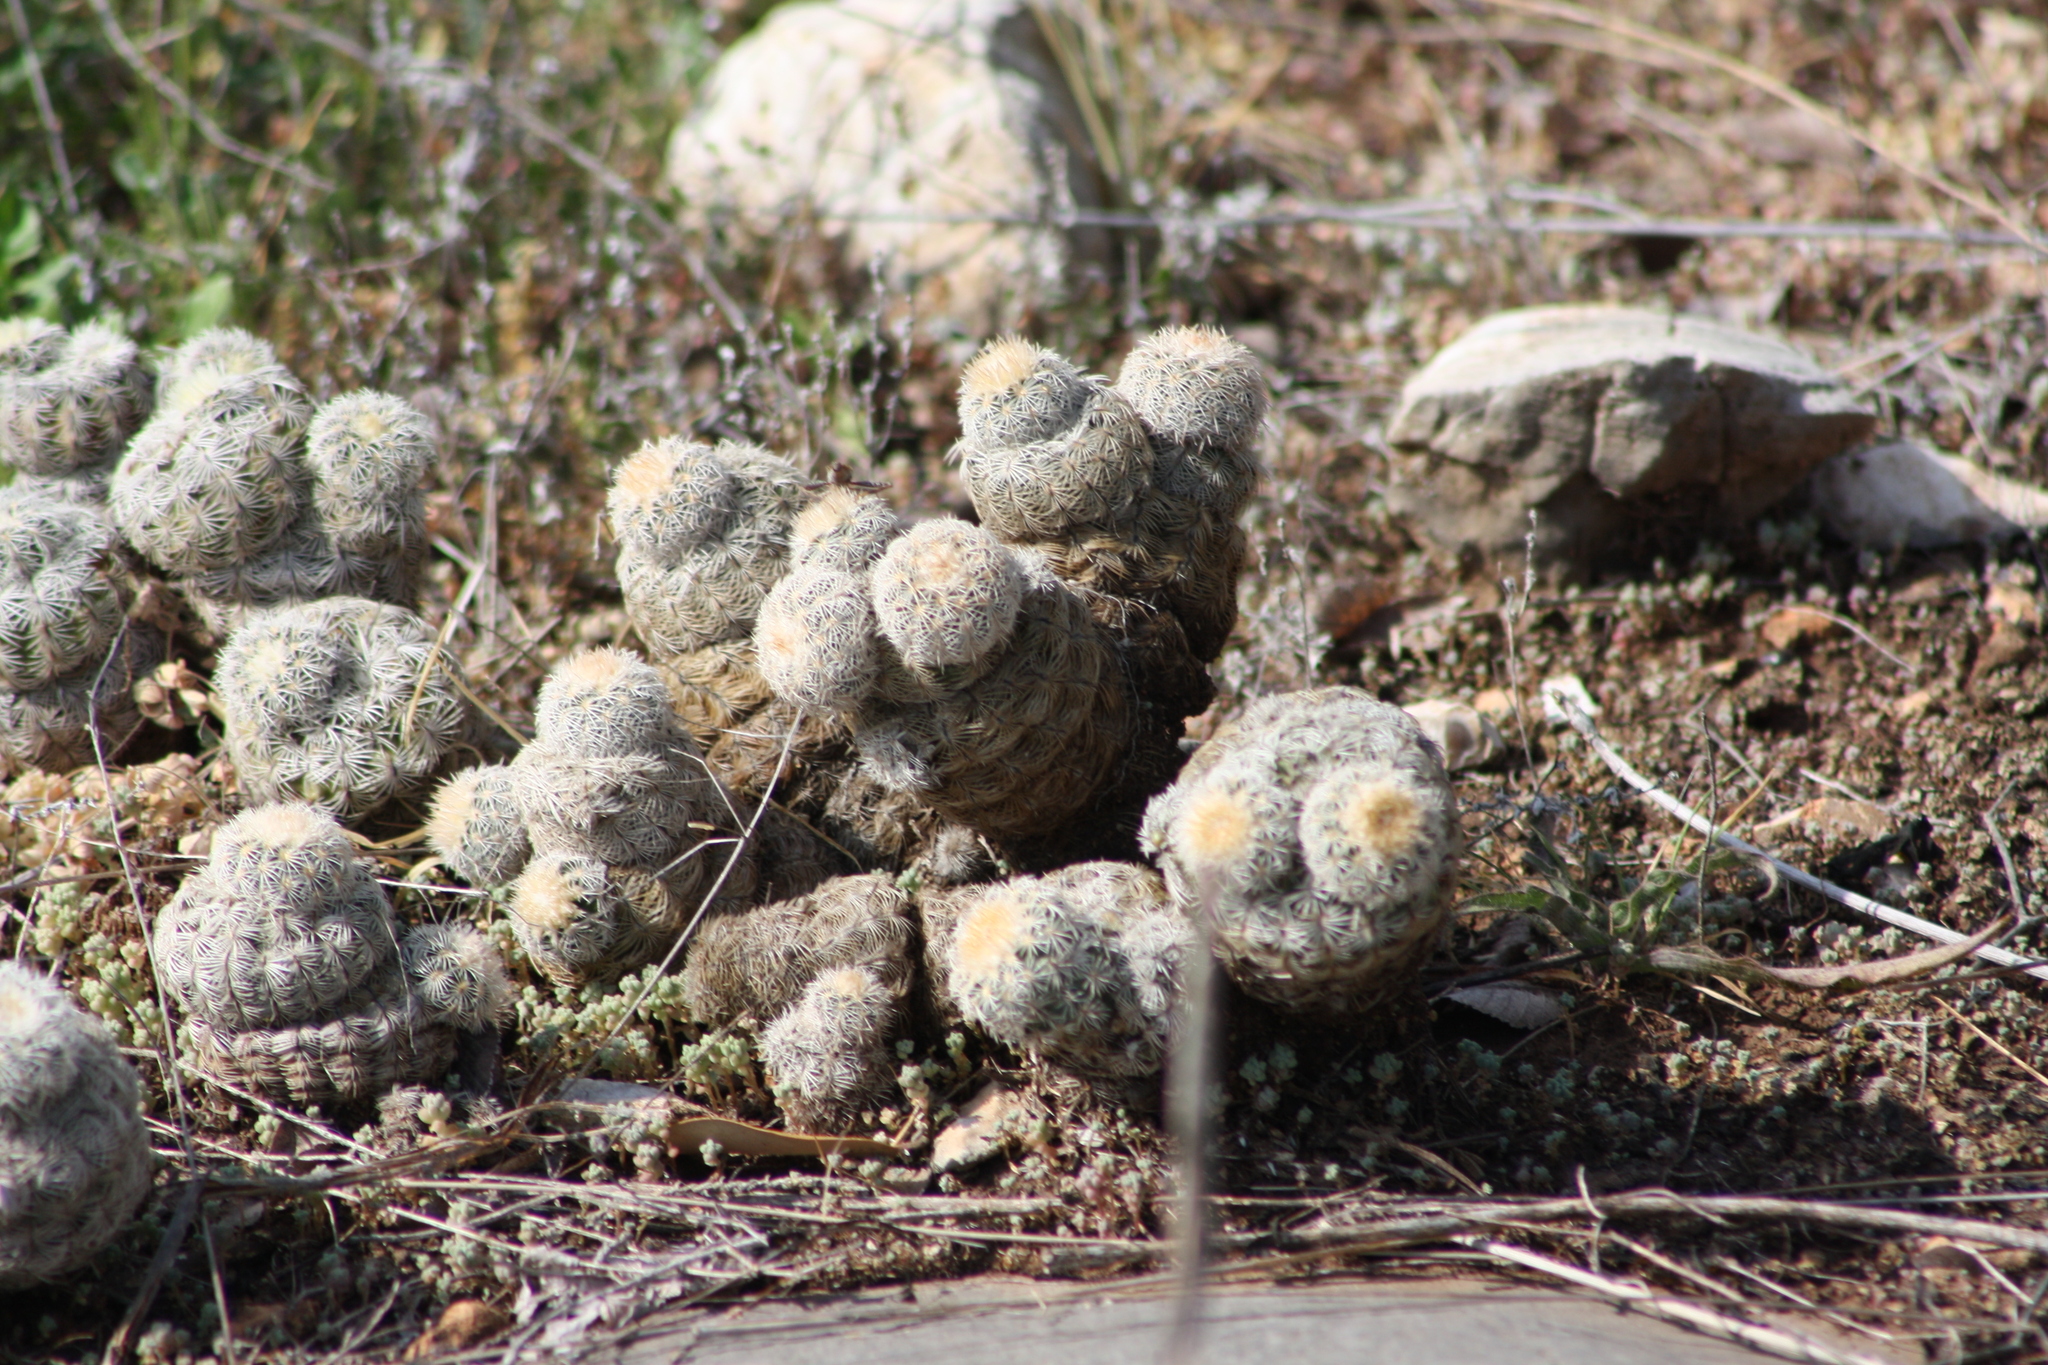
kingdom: Plantae
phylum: Tracheophyta
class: Magnoliopsida
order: Caryophyllales
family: Cactaceae
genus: Echinocereus
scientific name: Echinocereus reichenbachii
